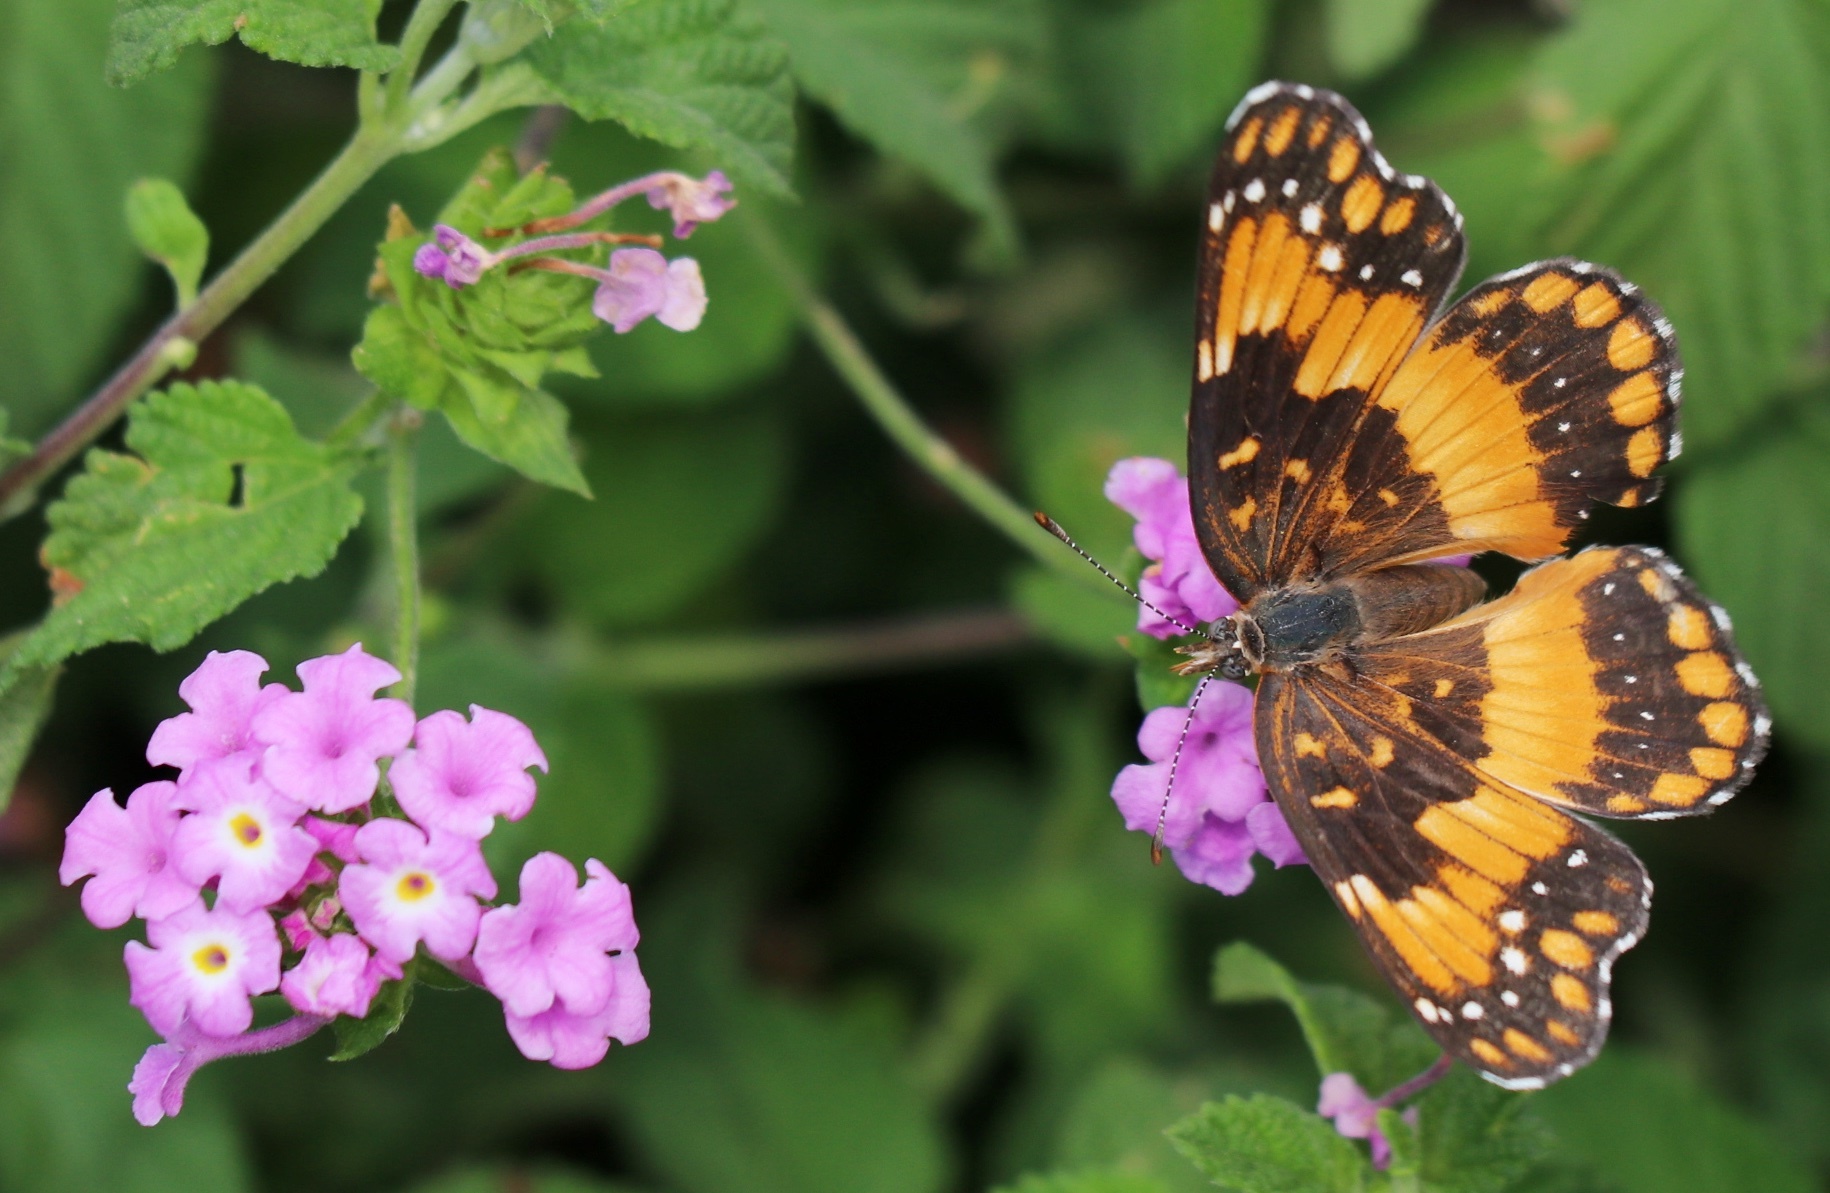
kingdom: Animalia
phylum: Arthropoda
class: Insecta
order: Lepidoptera
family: Nymphalidae
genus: Chlosyne
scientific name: Chlosyne californica
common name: California patch
